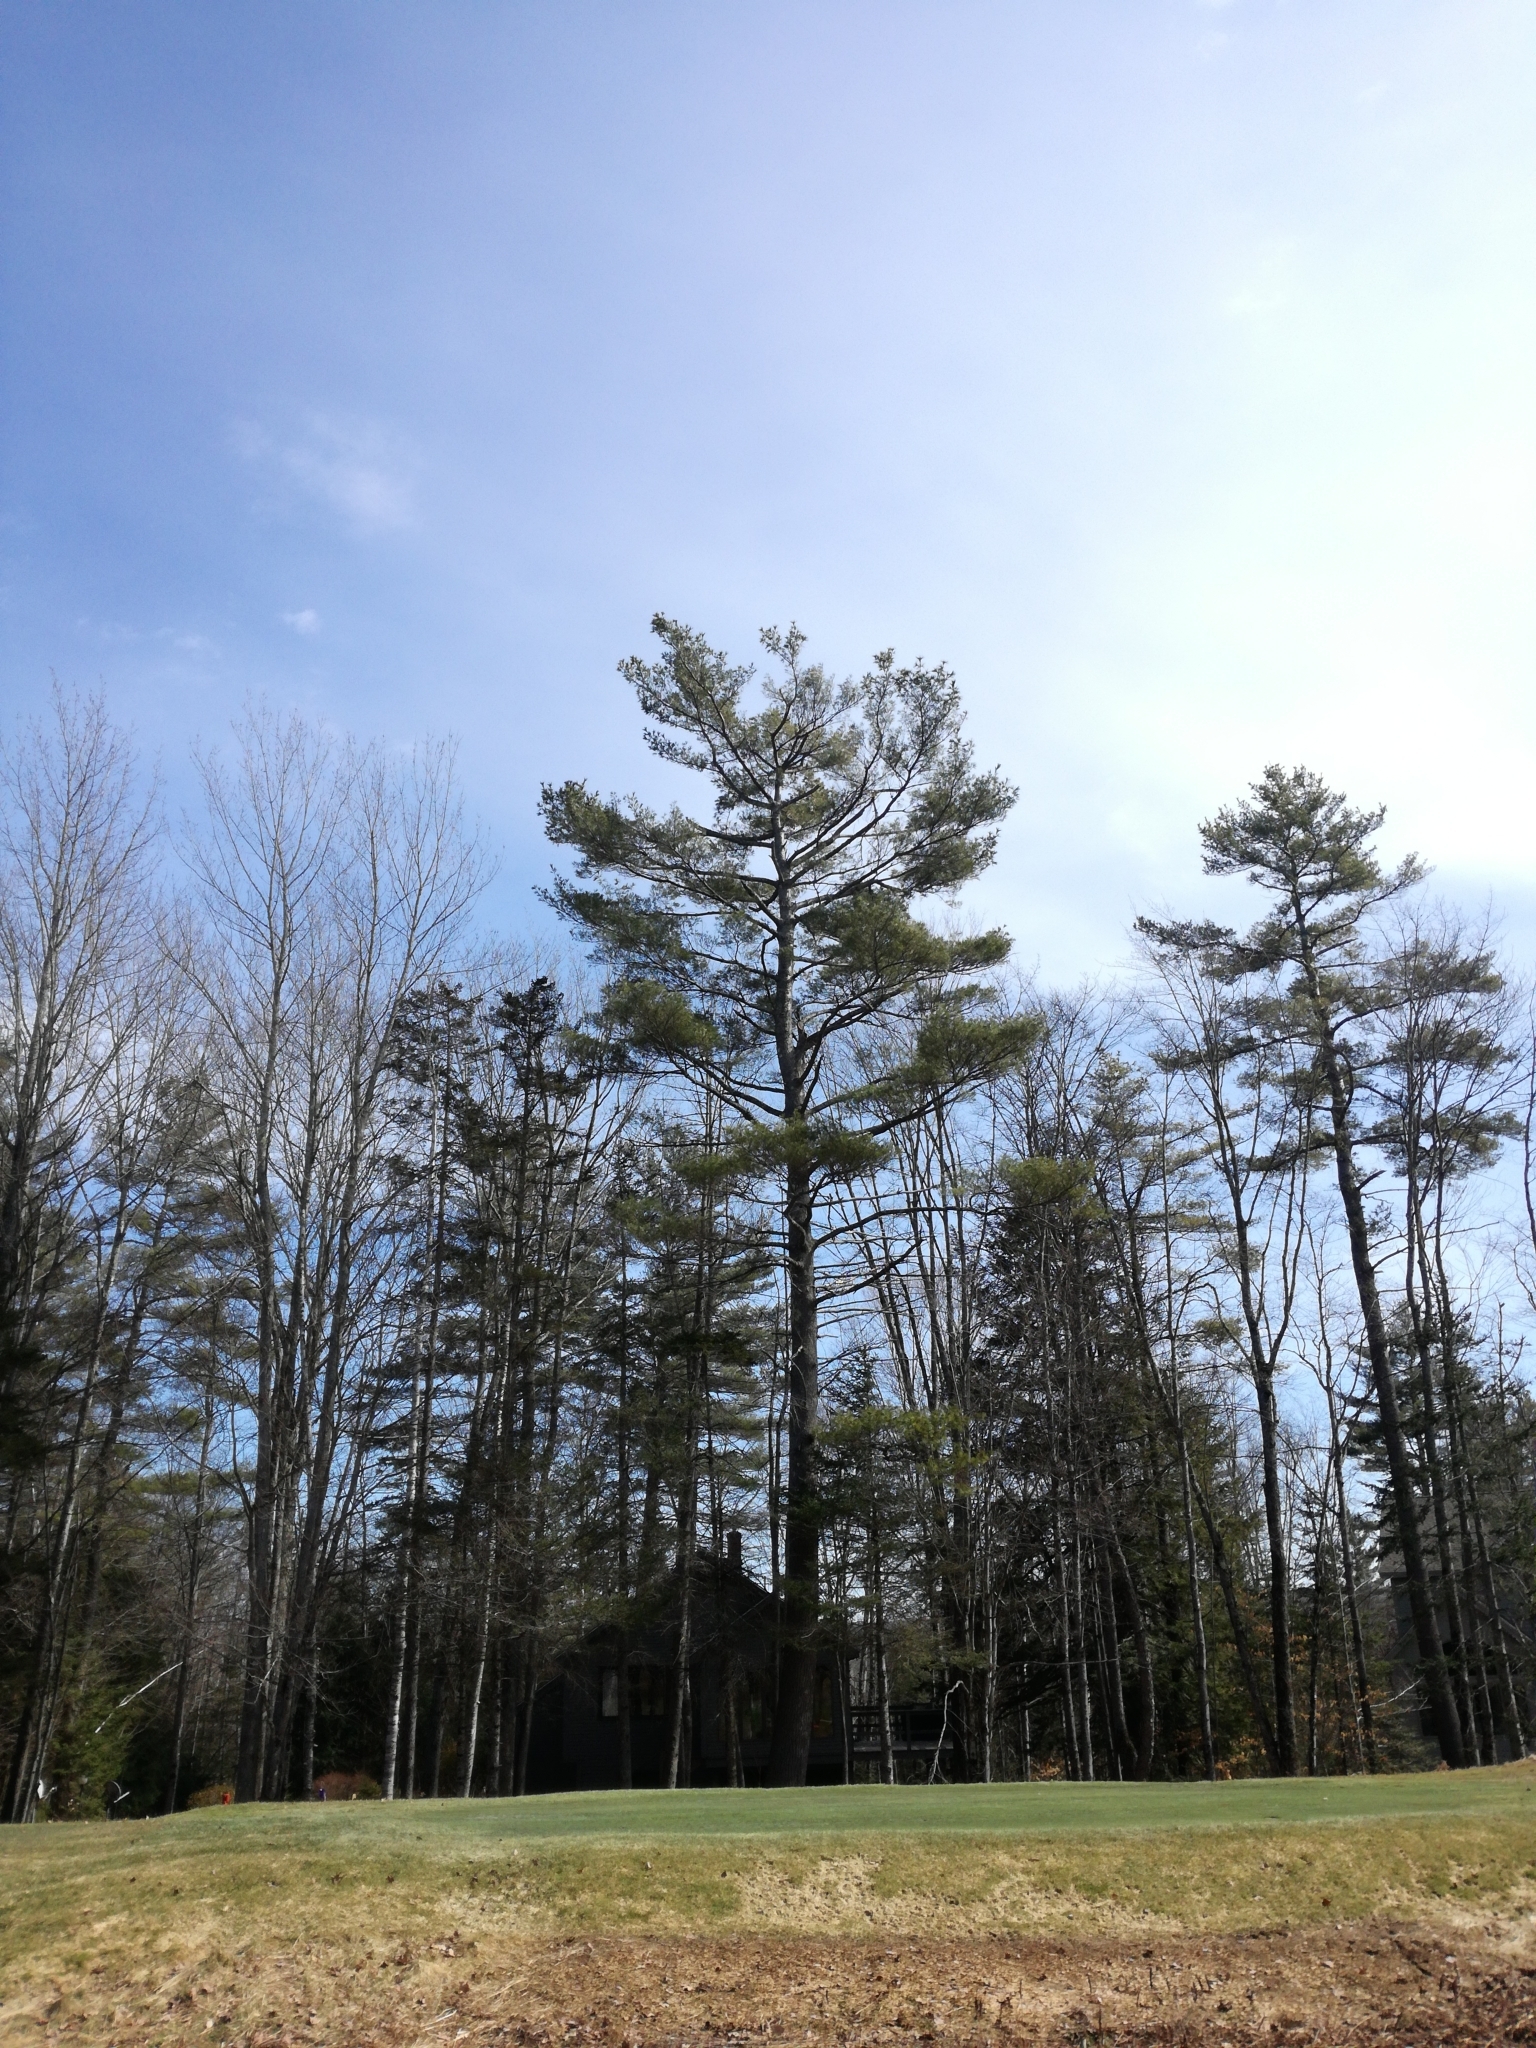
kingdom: Plantae
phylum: Tracheophyta
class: Pinopsida
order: Pinales
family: Pinaceae
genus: Pinus
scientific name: Pinus strobus
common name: Weymouth pine
